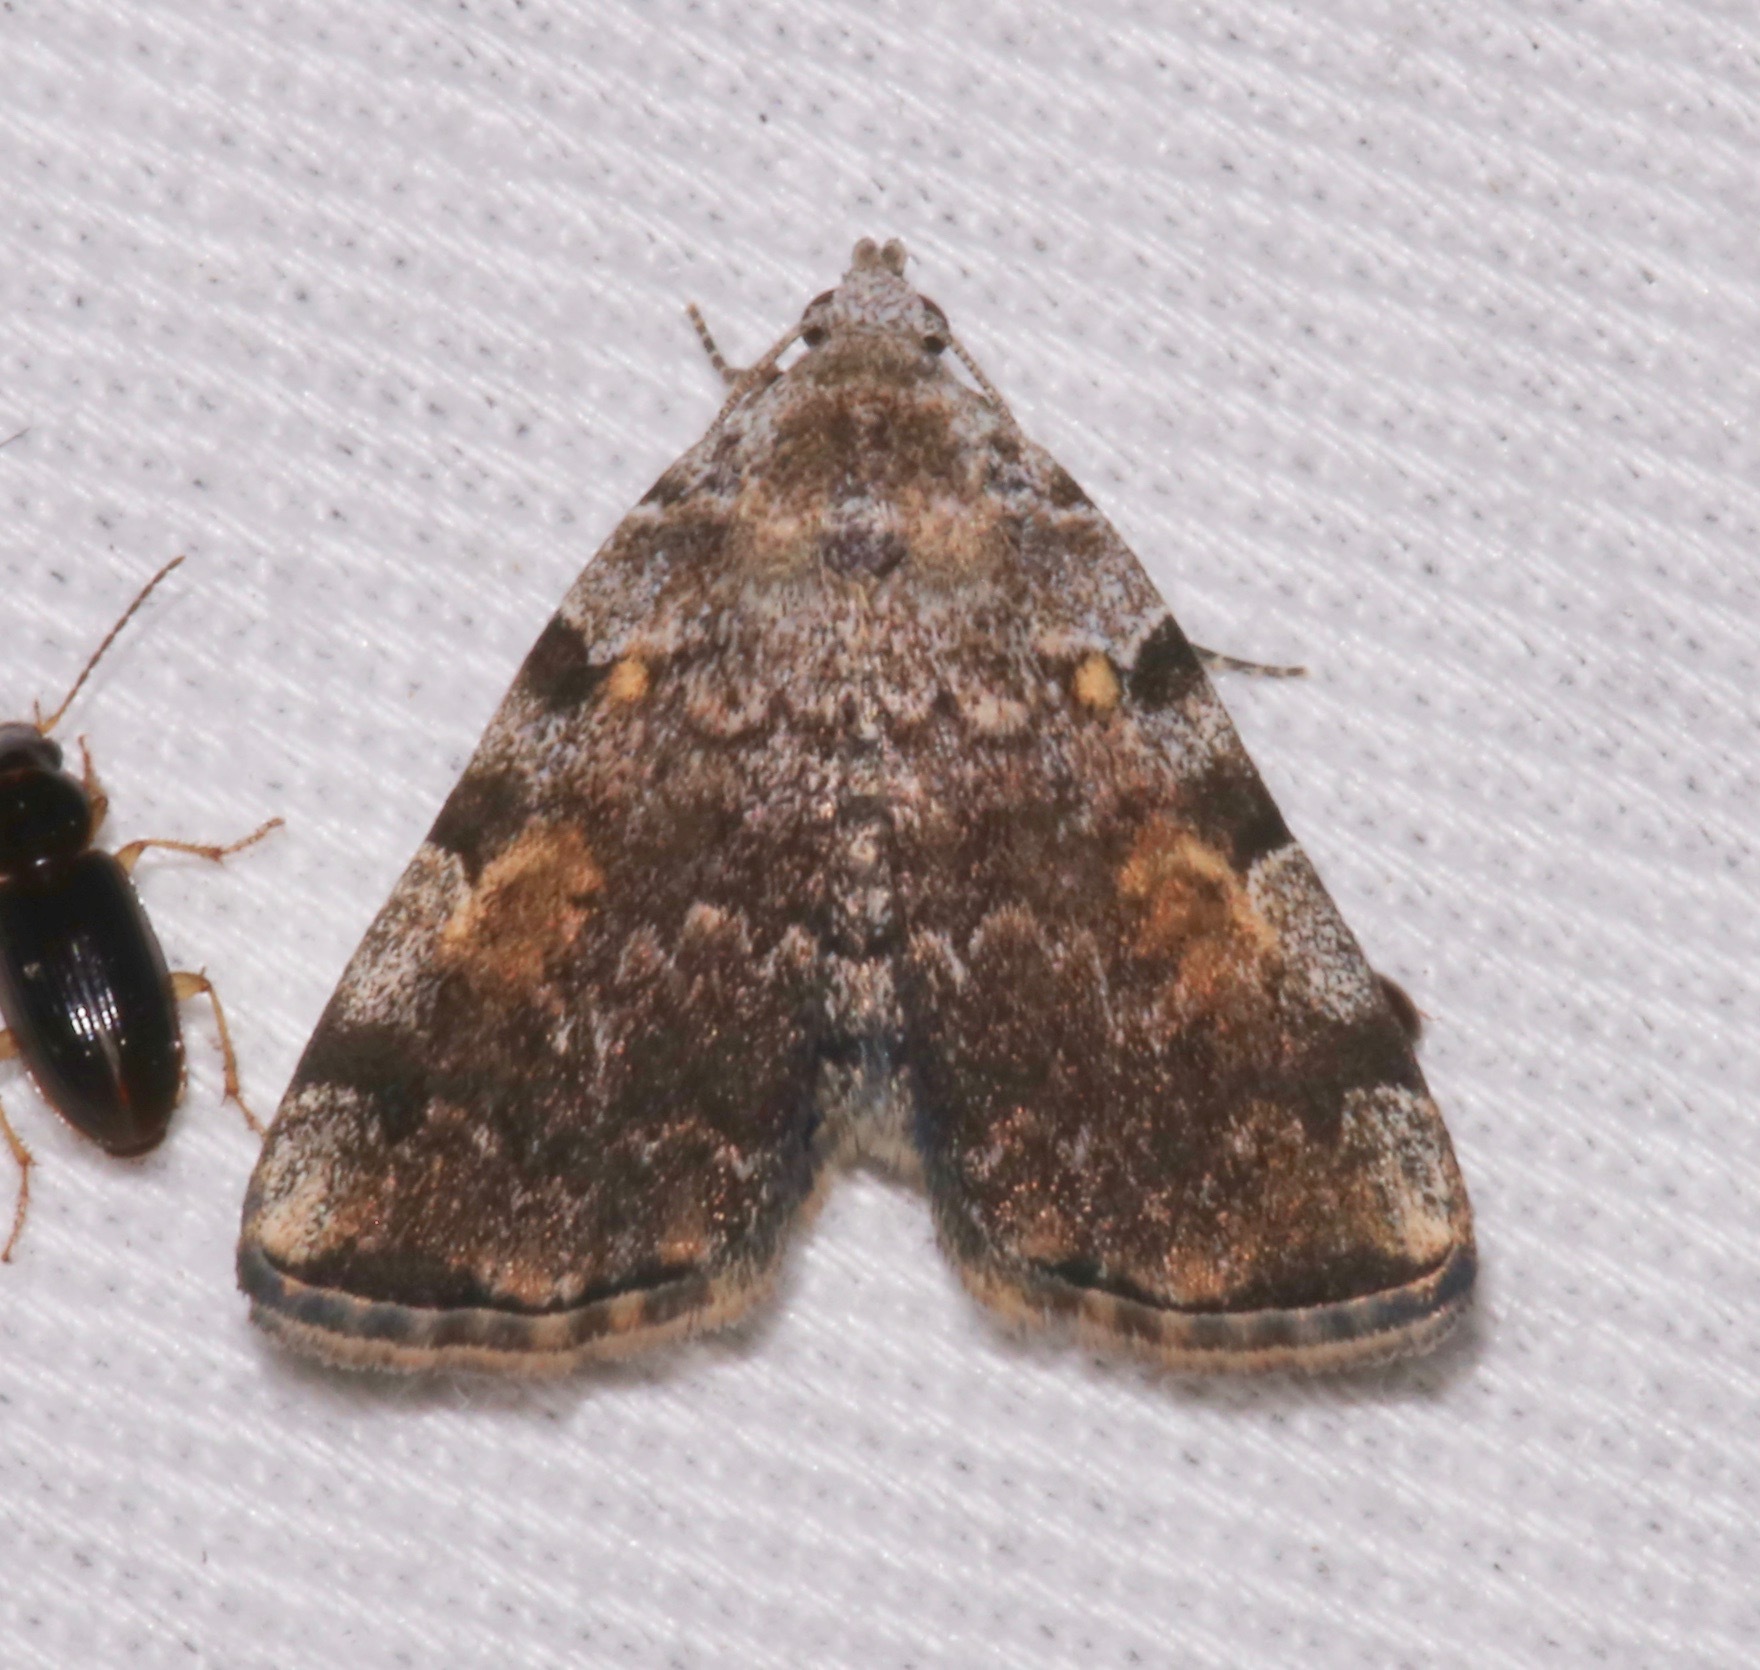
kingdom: Animalia
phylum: Arthropoda
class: Insecta
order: Lepidoptera
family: Erebidae
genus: Idia
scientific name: Idia americalis
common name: American idia moth
